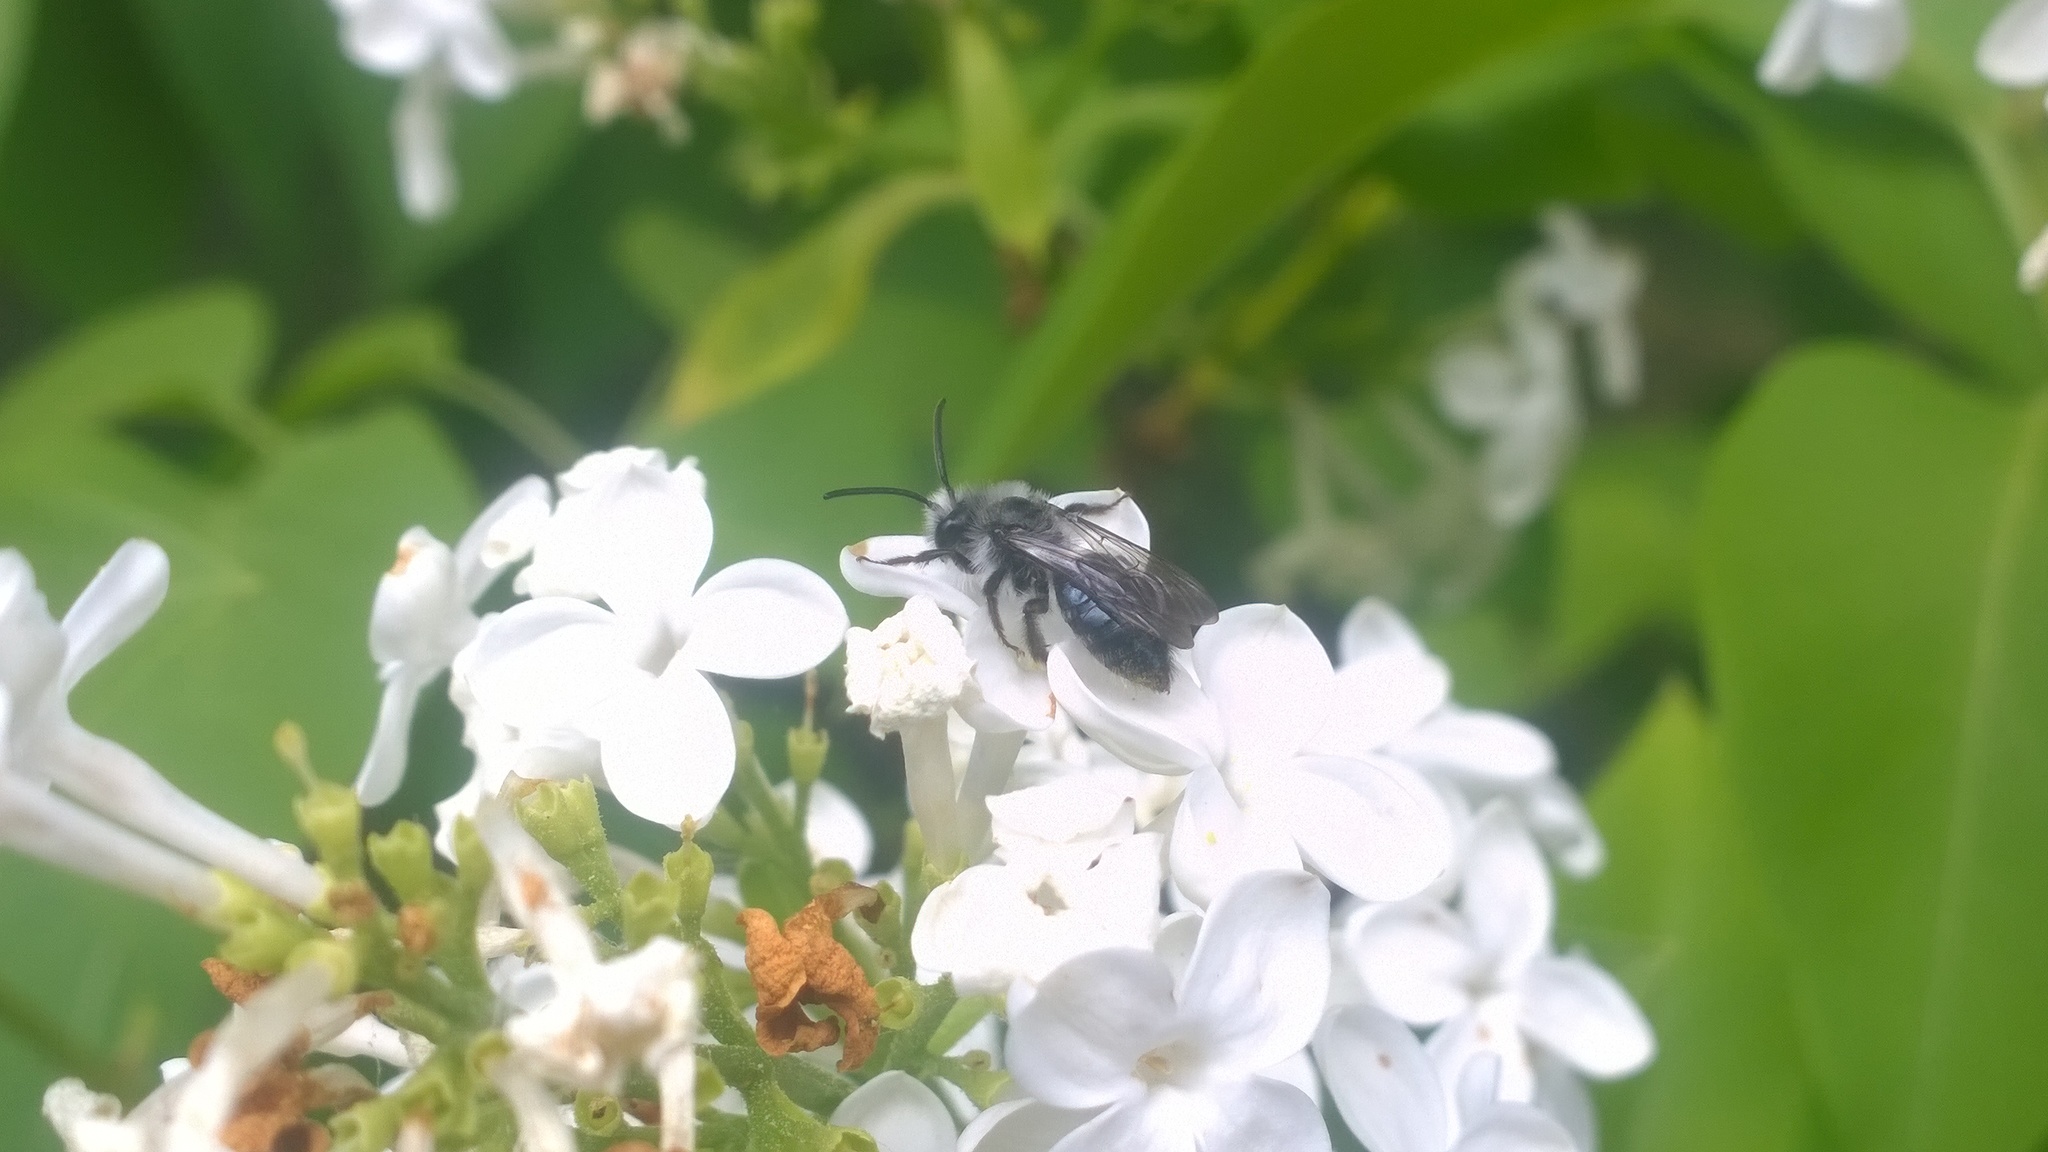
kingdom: Animalia
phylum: Arthropoda
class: Insecta
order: Hymenoptera
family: Andrenidae
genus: Andrena
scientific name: Andrena cineraria
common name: Ashy mining bee
